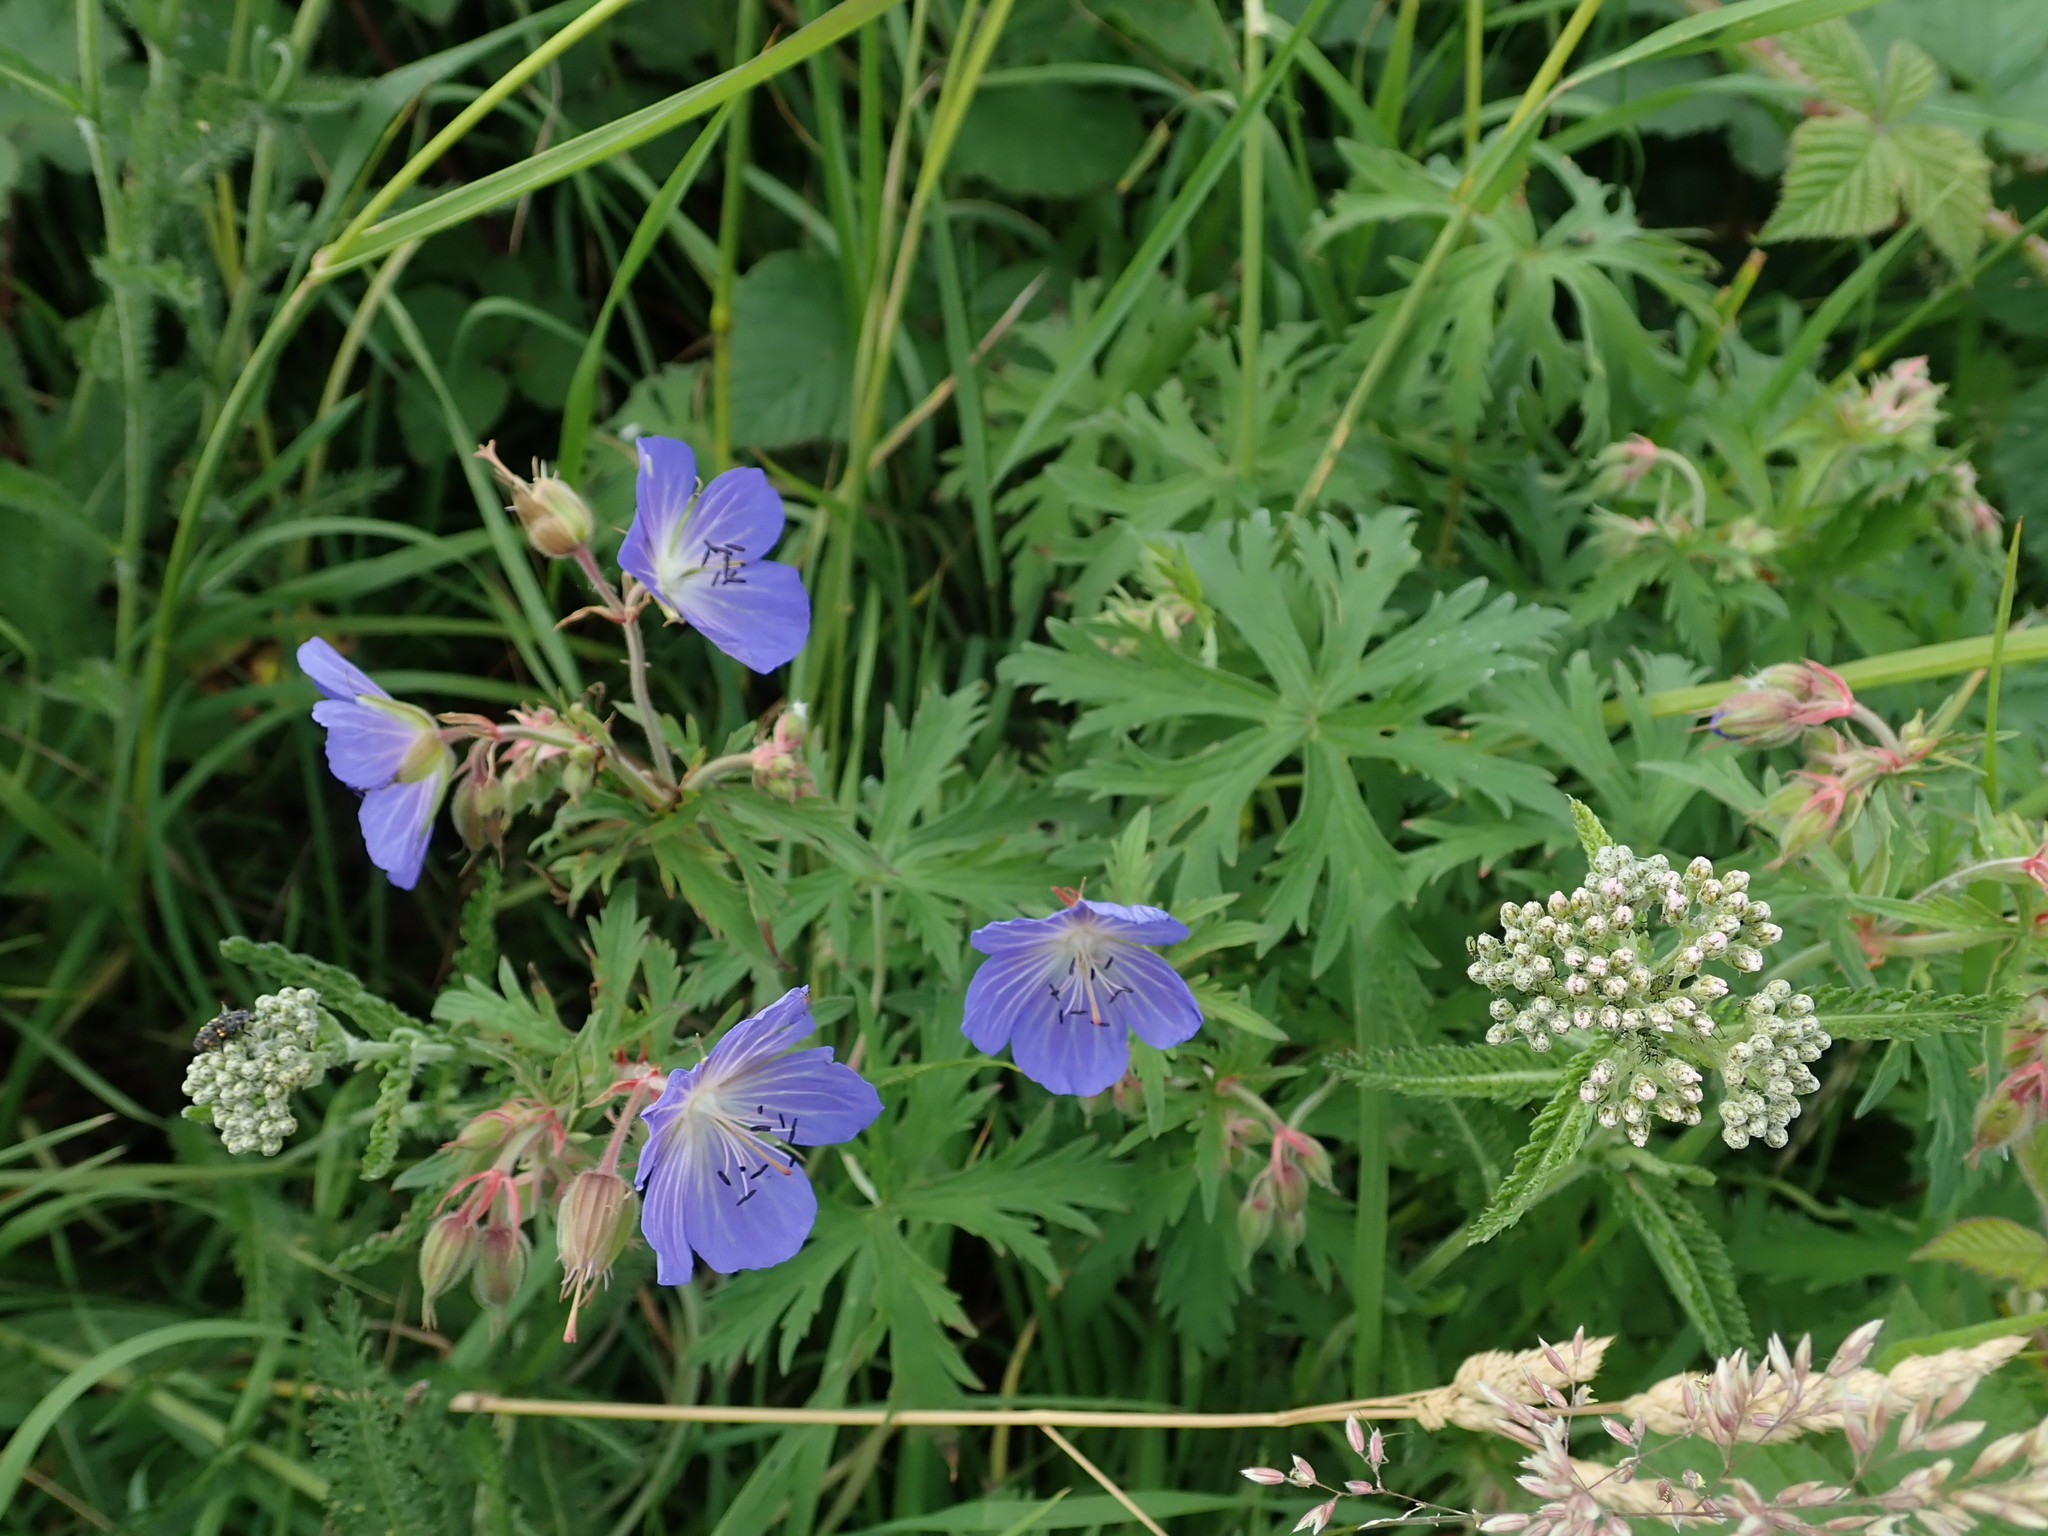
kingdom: Plantae
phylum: Tracheophyta
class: Magnoliopsida
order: Geraniales
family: Geraniaceae
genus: Geranium
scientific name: Geranium pratense
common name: Meadow crane's-bill
